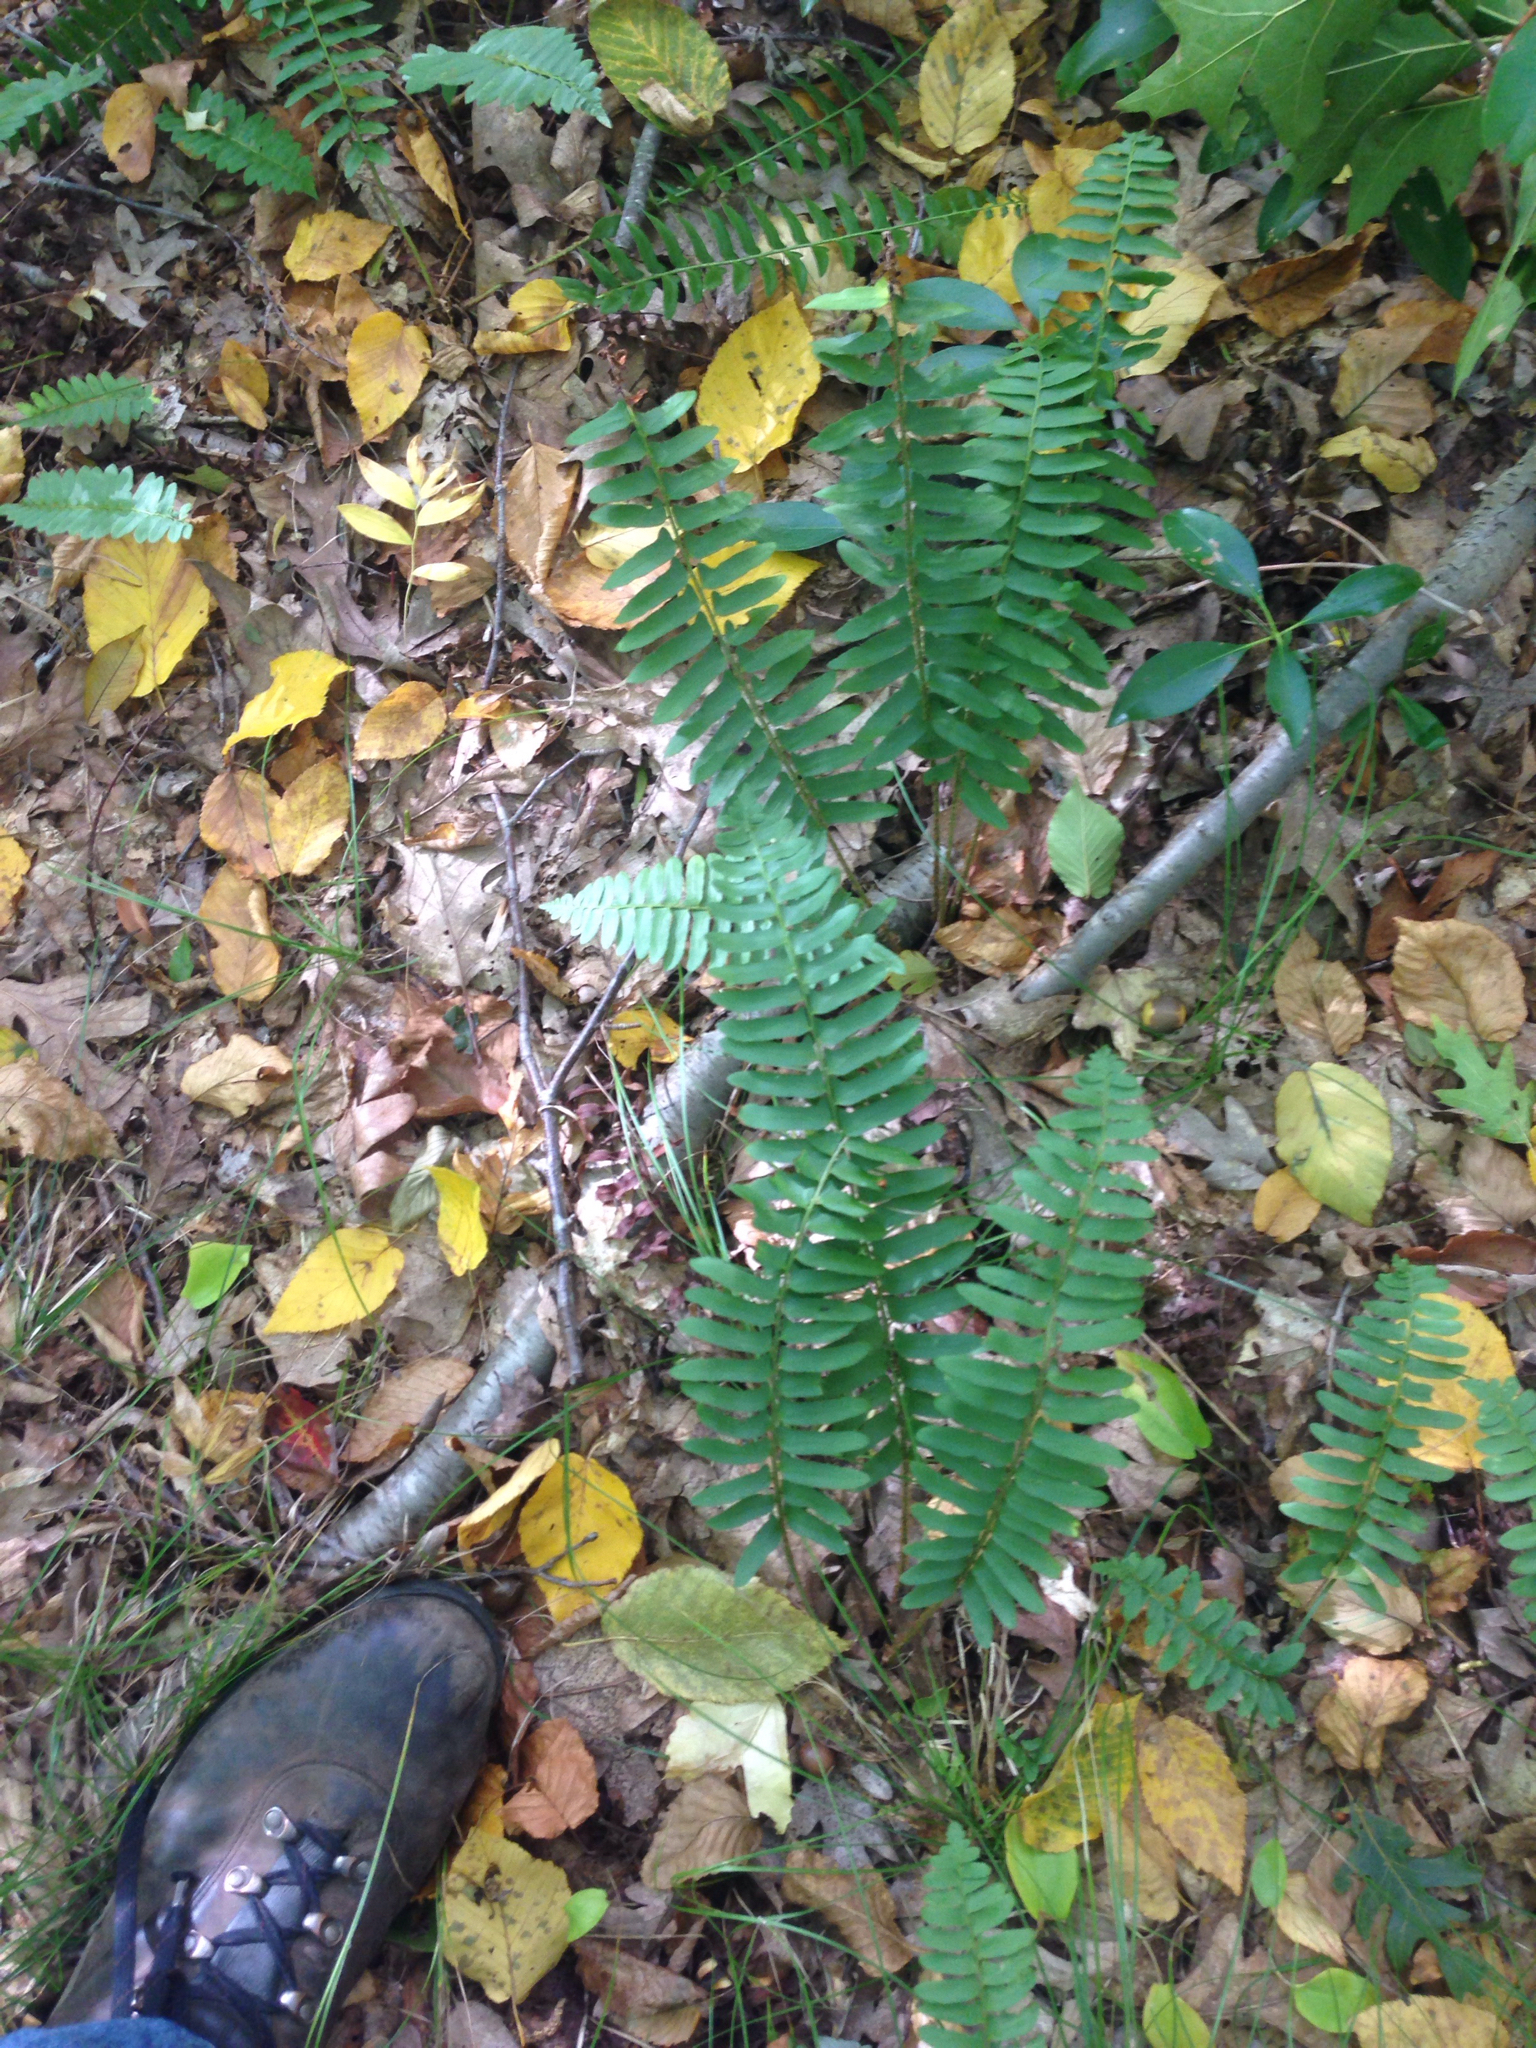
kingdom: Plantae
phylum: Tracheophyta
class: Polypodiopsida
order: Polypodiales
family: Dryopteridaceae
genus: Polystichum
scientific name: Polystichum acrostichoides
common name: Christmas fern
